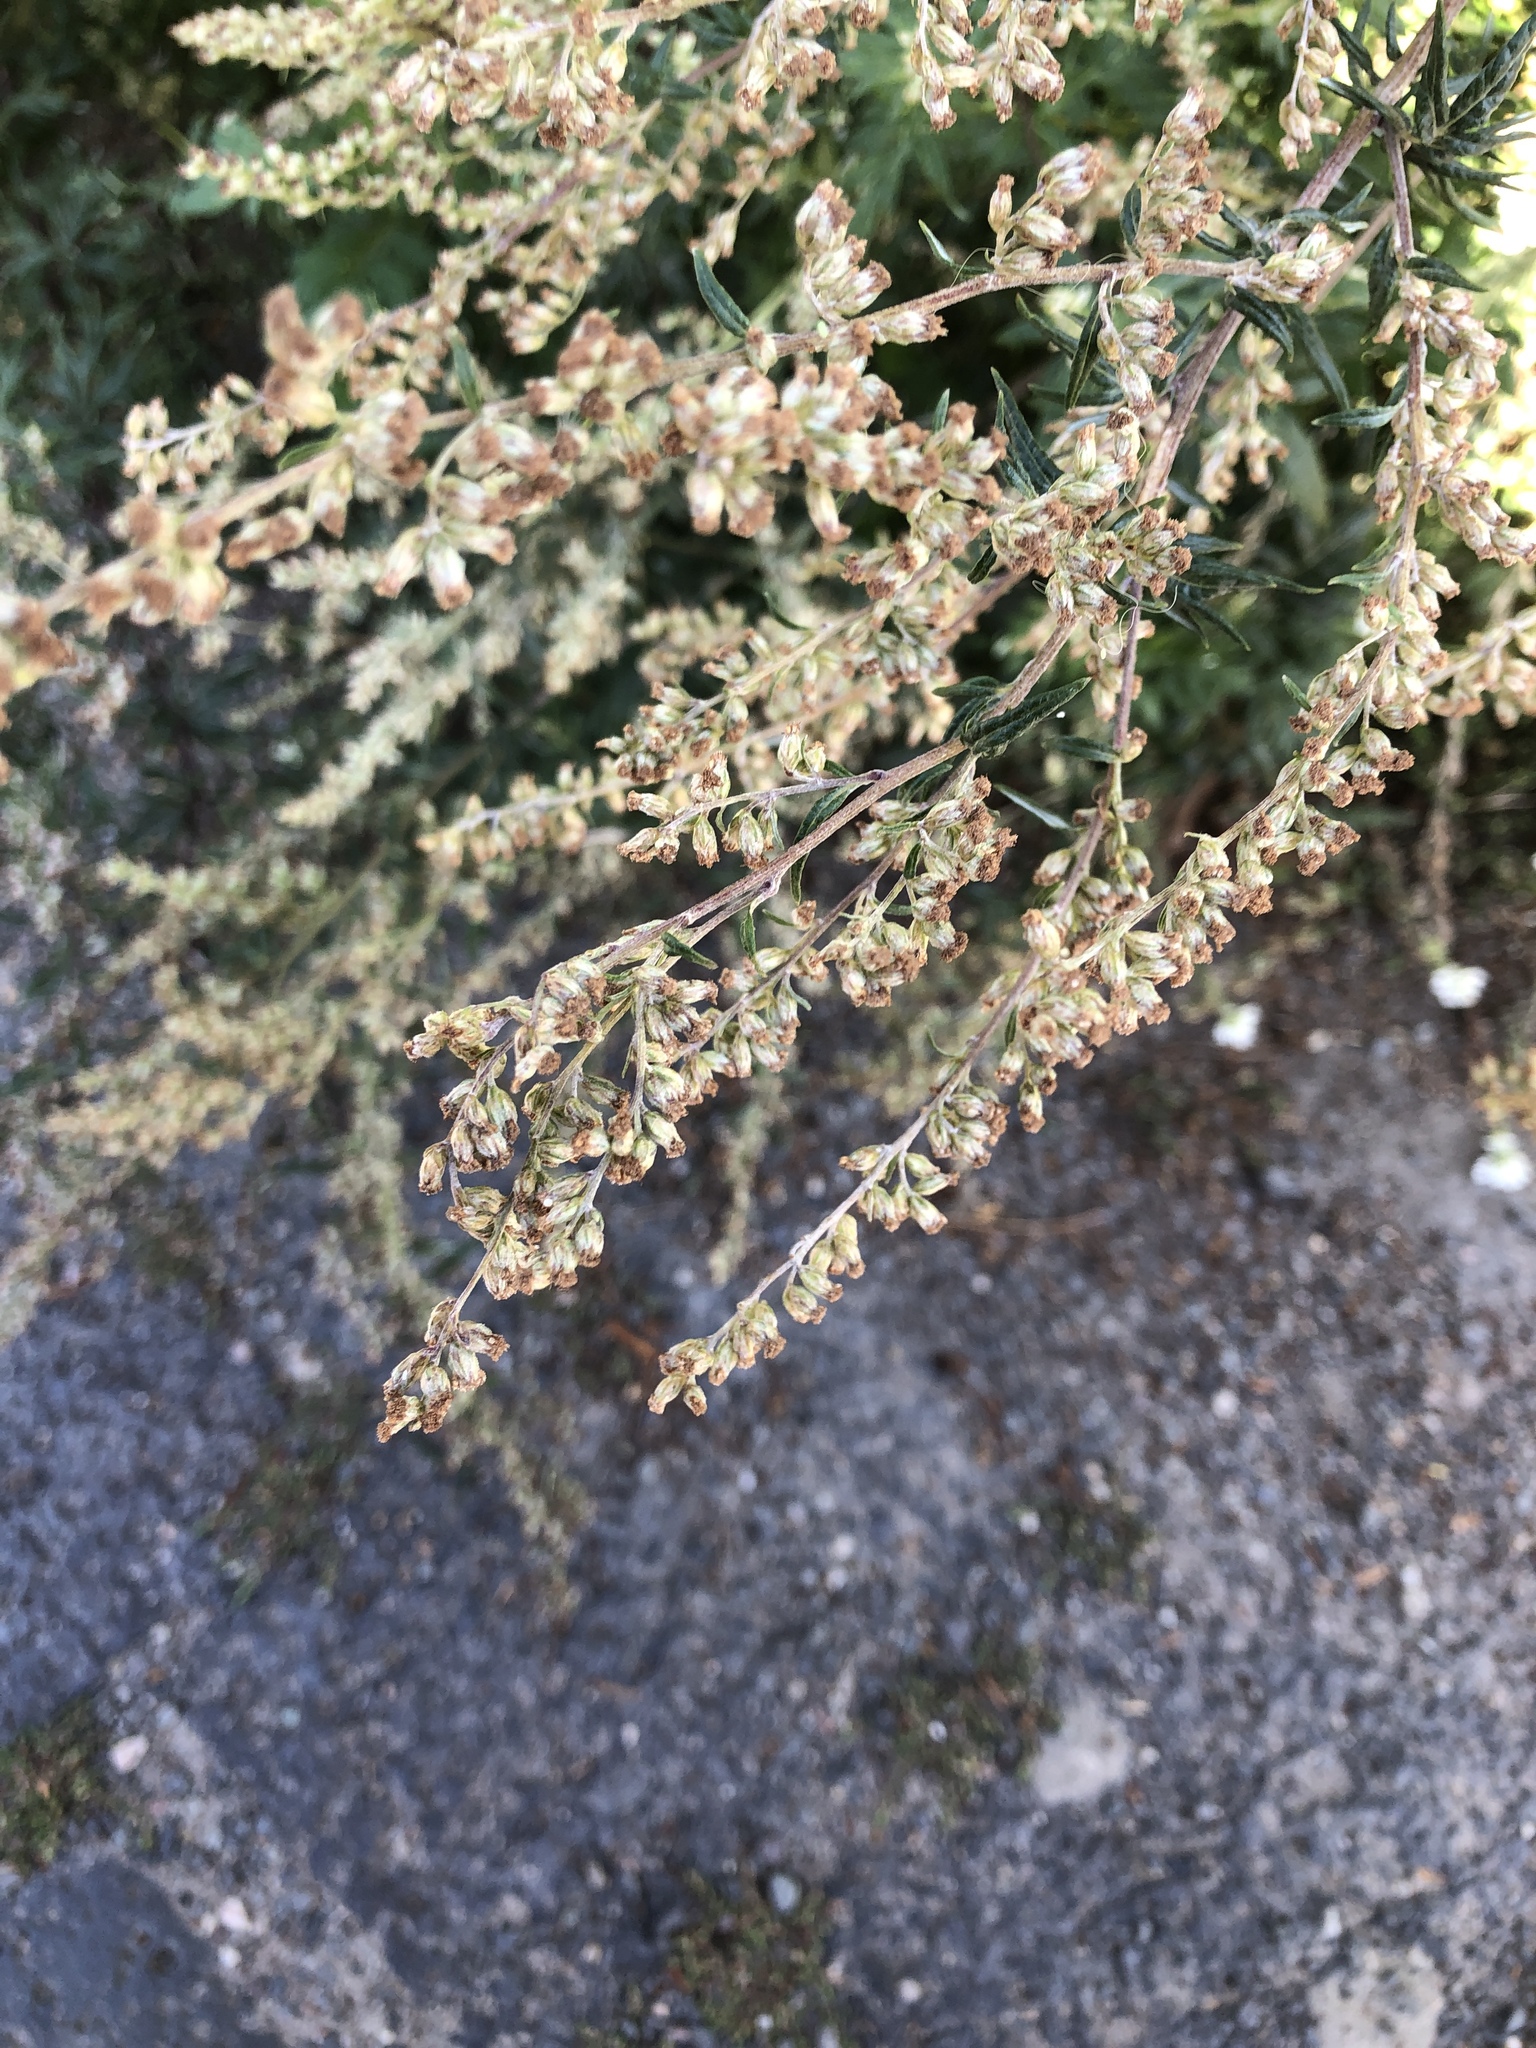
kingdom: Plantae
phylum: Tracheophyta
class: Magnoliopsida
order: Asterales
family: Asteraceae
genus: Artemisia
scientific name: Artemisia vulgaris
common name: Mugwort
